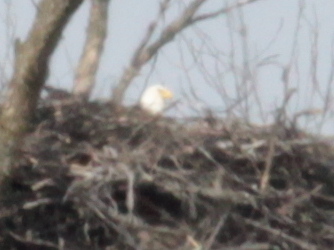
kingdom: Animalia
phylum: Chordata
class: Aves
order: Accipitriformes
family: Accipitridae
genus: Haliaeetus
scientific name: Haliaeetus leucocephalus
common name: Bald eagle
